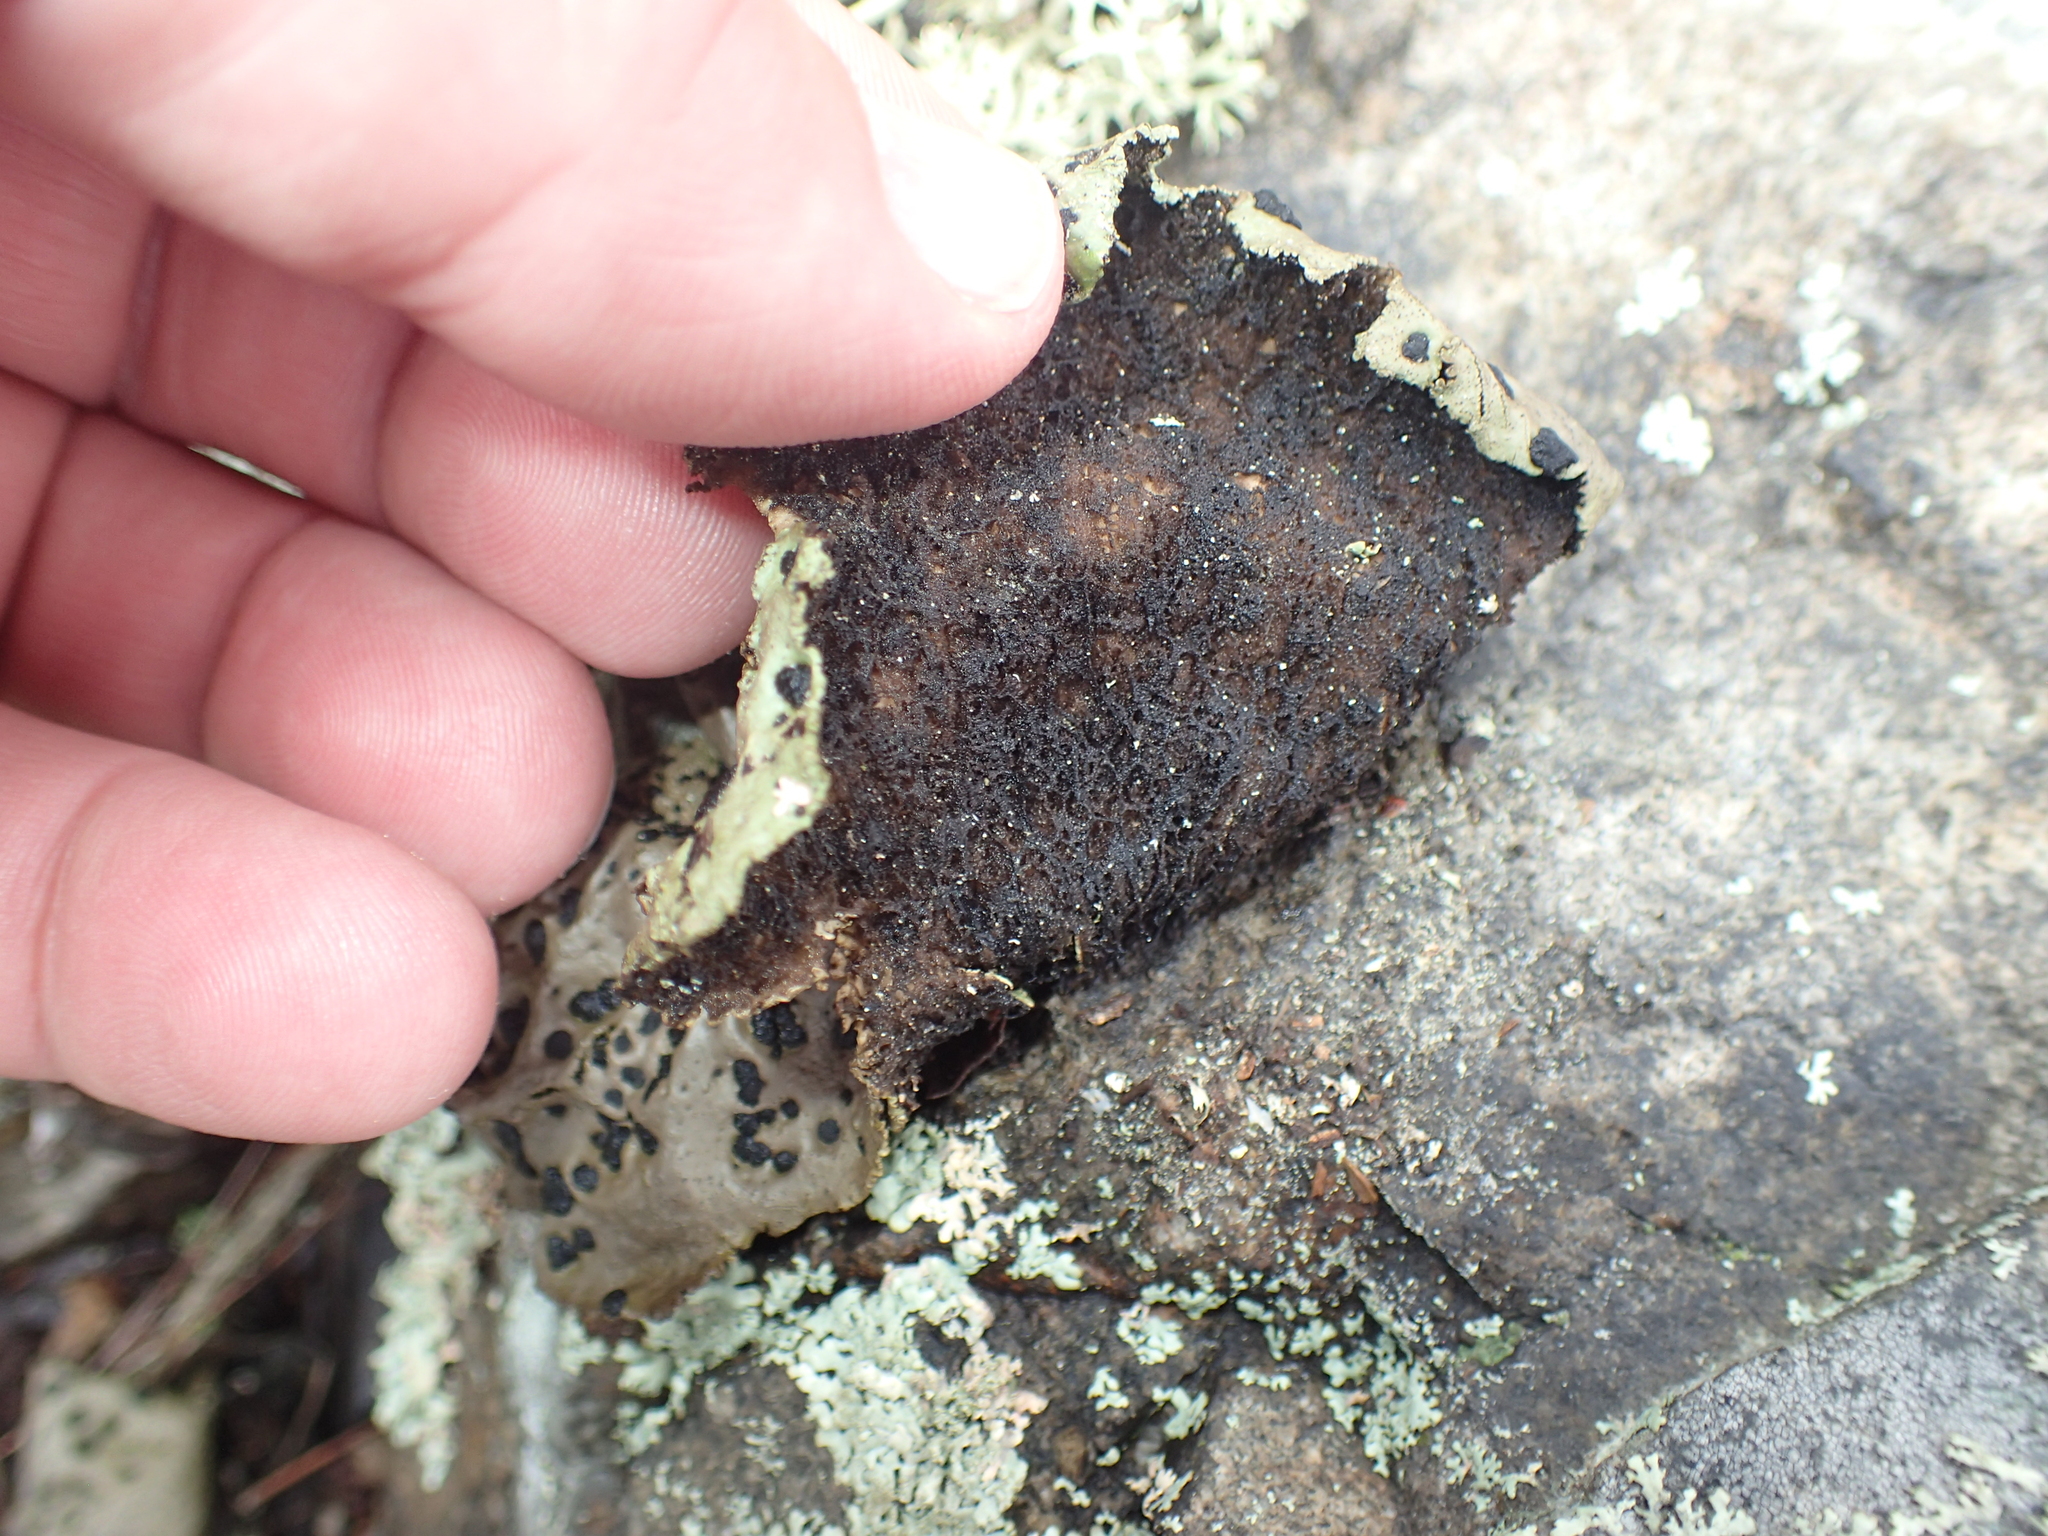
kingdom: Fungi
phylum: Ascomycota
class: Lecanoromycetes
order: Umbilicariales
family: Umbilicariaceae
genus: Umbilicaria
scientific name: Umbilicaria muhlenbergii
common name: Lesser rocktripe
